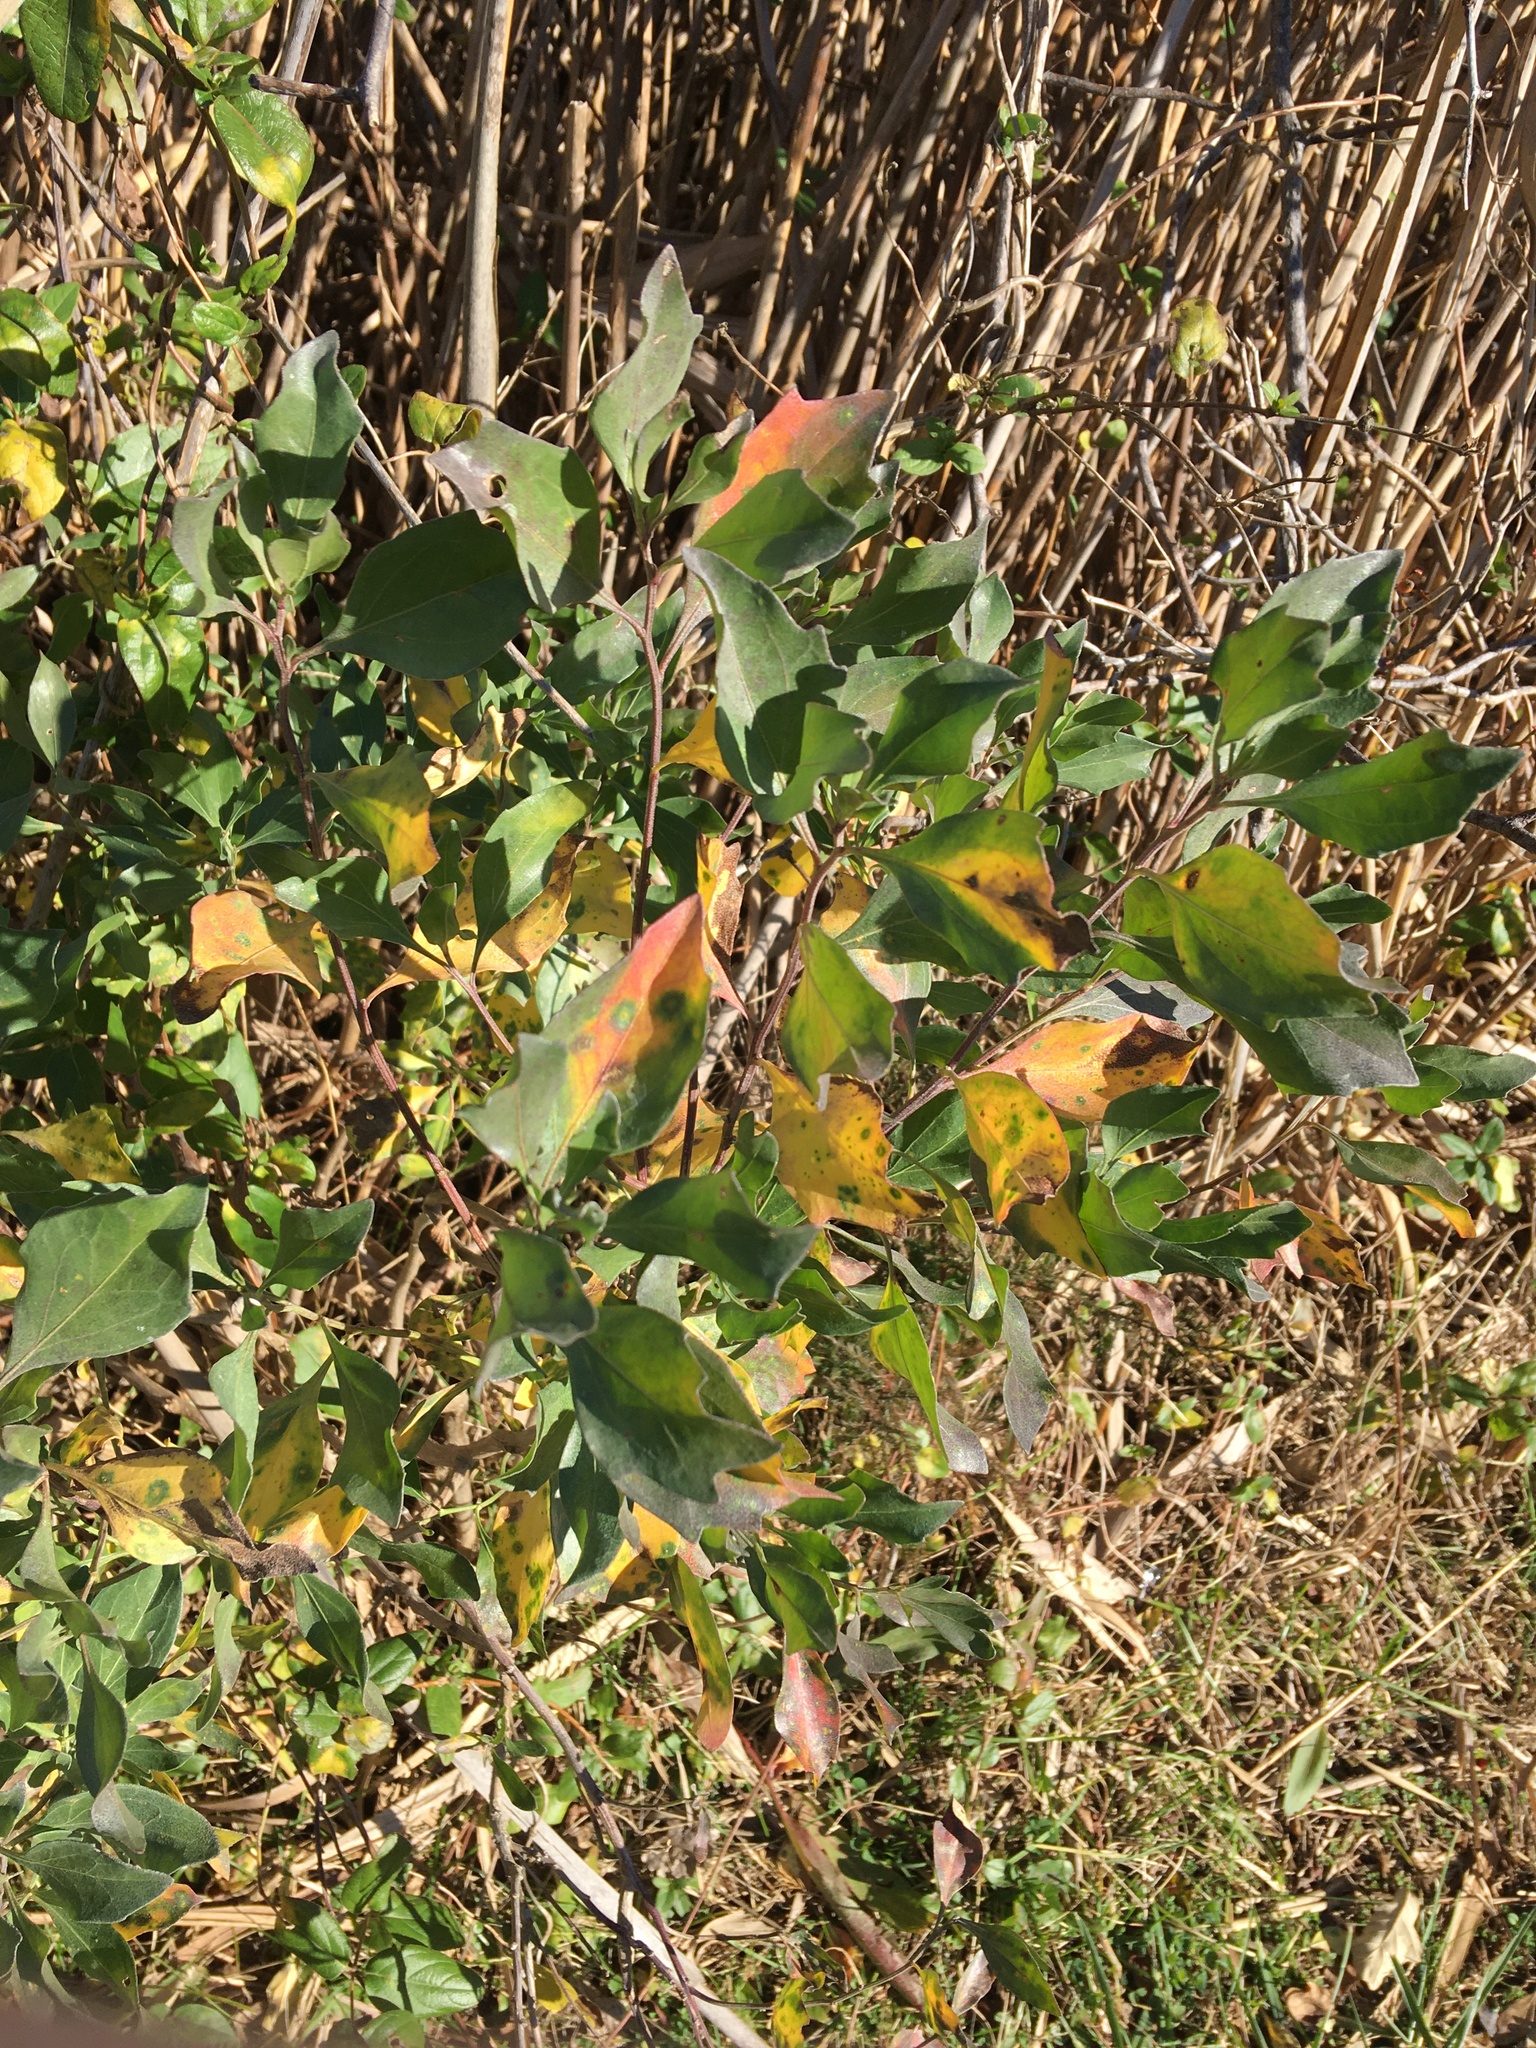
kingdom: Plantae
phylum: Tracheophyta
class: Magnoliopsida
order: Asterales
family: Asteraceae
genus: Baccharis
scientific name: Baccharis halimifolia
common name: Eastern baccharis
